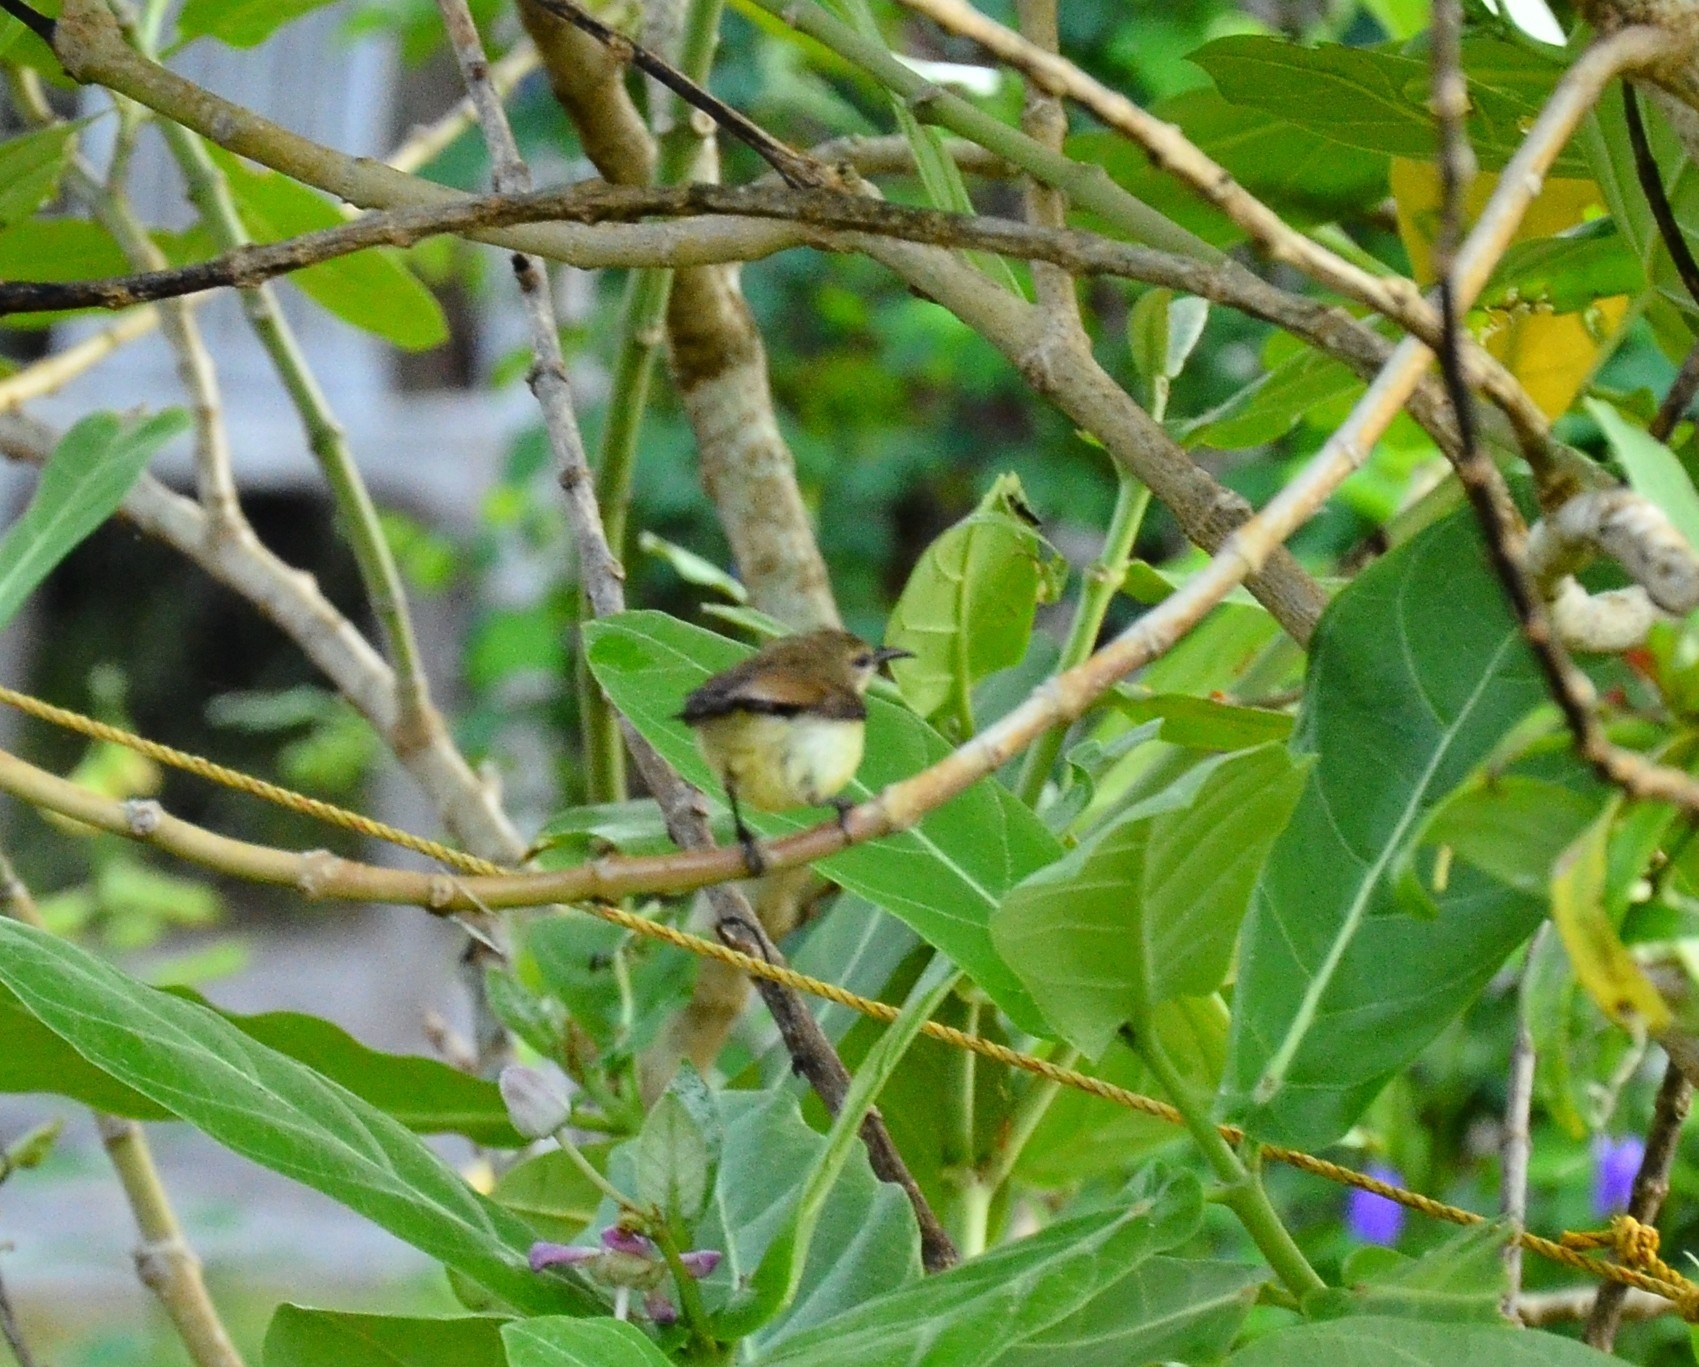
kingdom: Animalia
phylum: Chordata
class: Aves
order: Passeriformes
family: Nectariniidae
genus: Leptocoma
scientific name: Leptocoma zeylonica
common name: Purple-rumped sunbird
